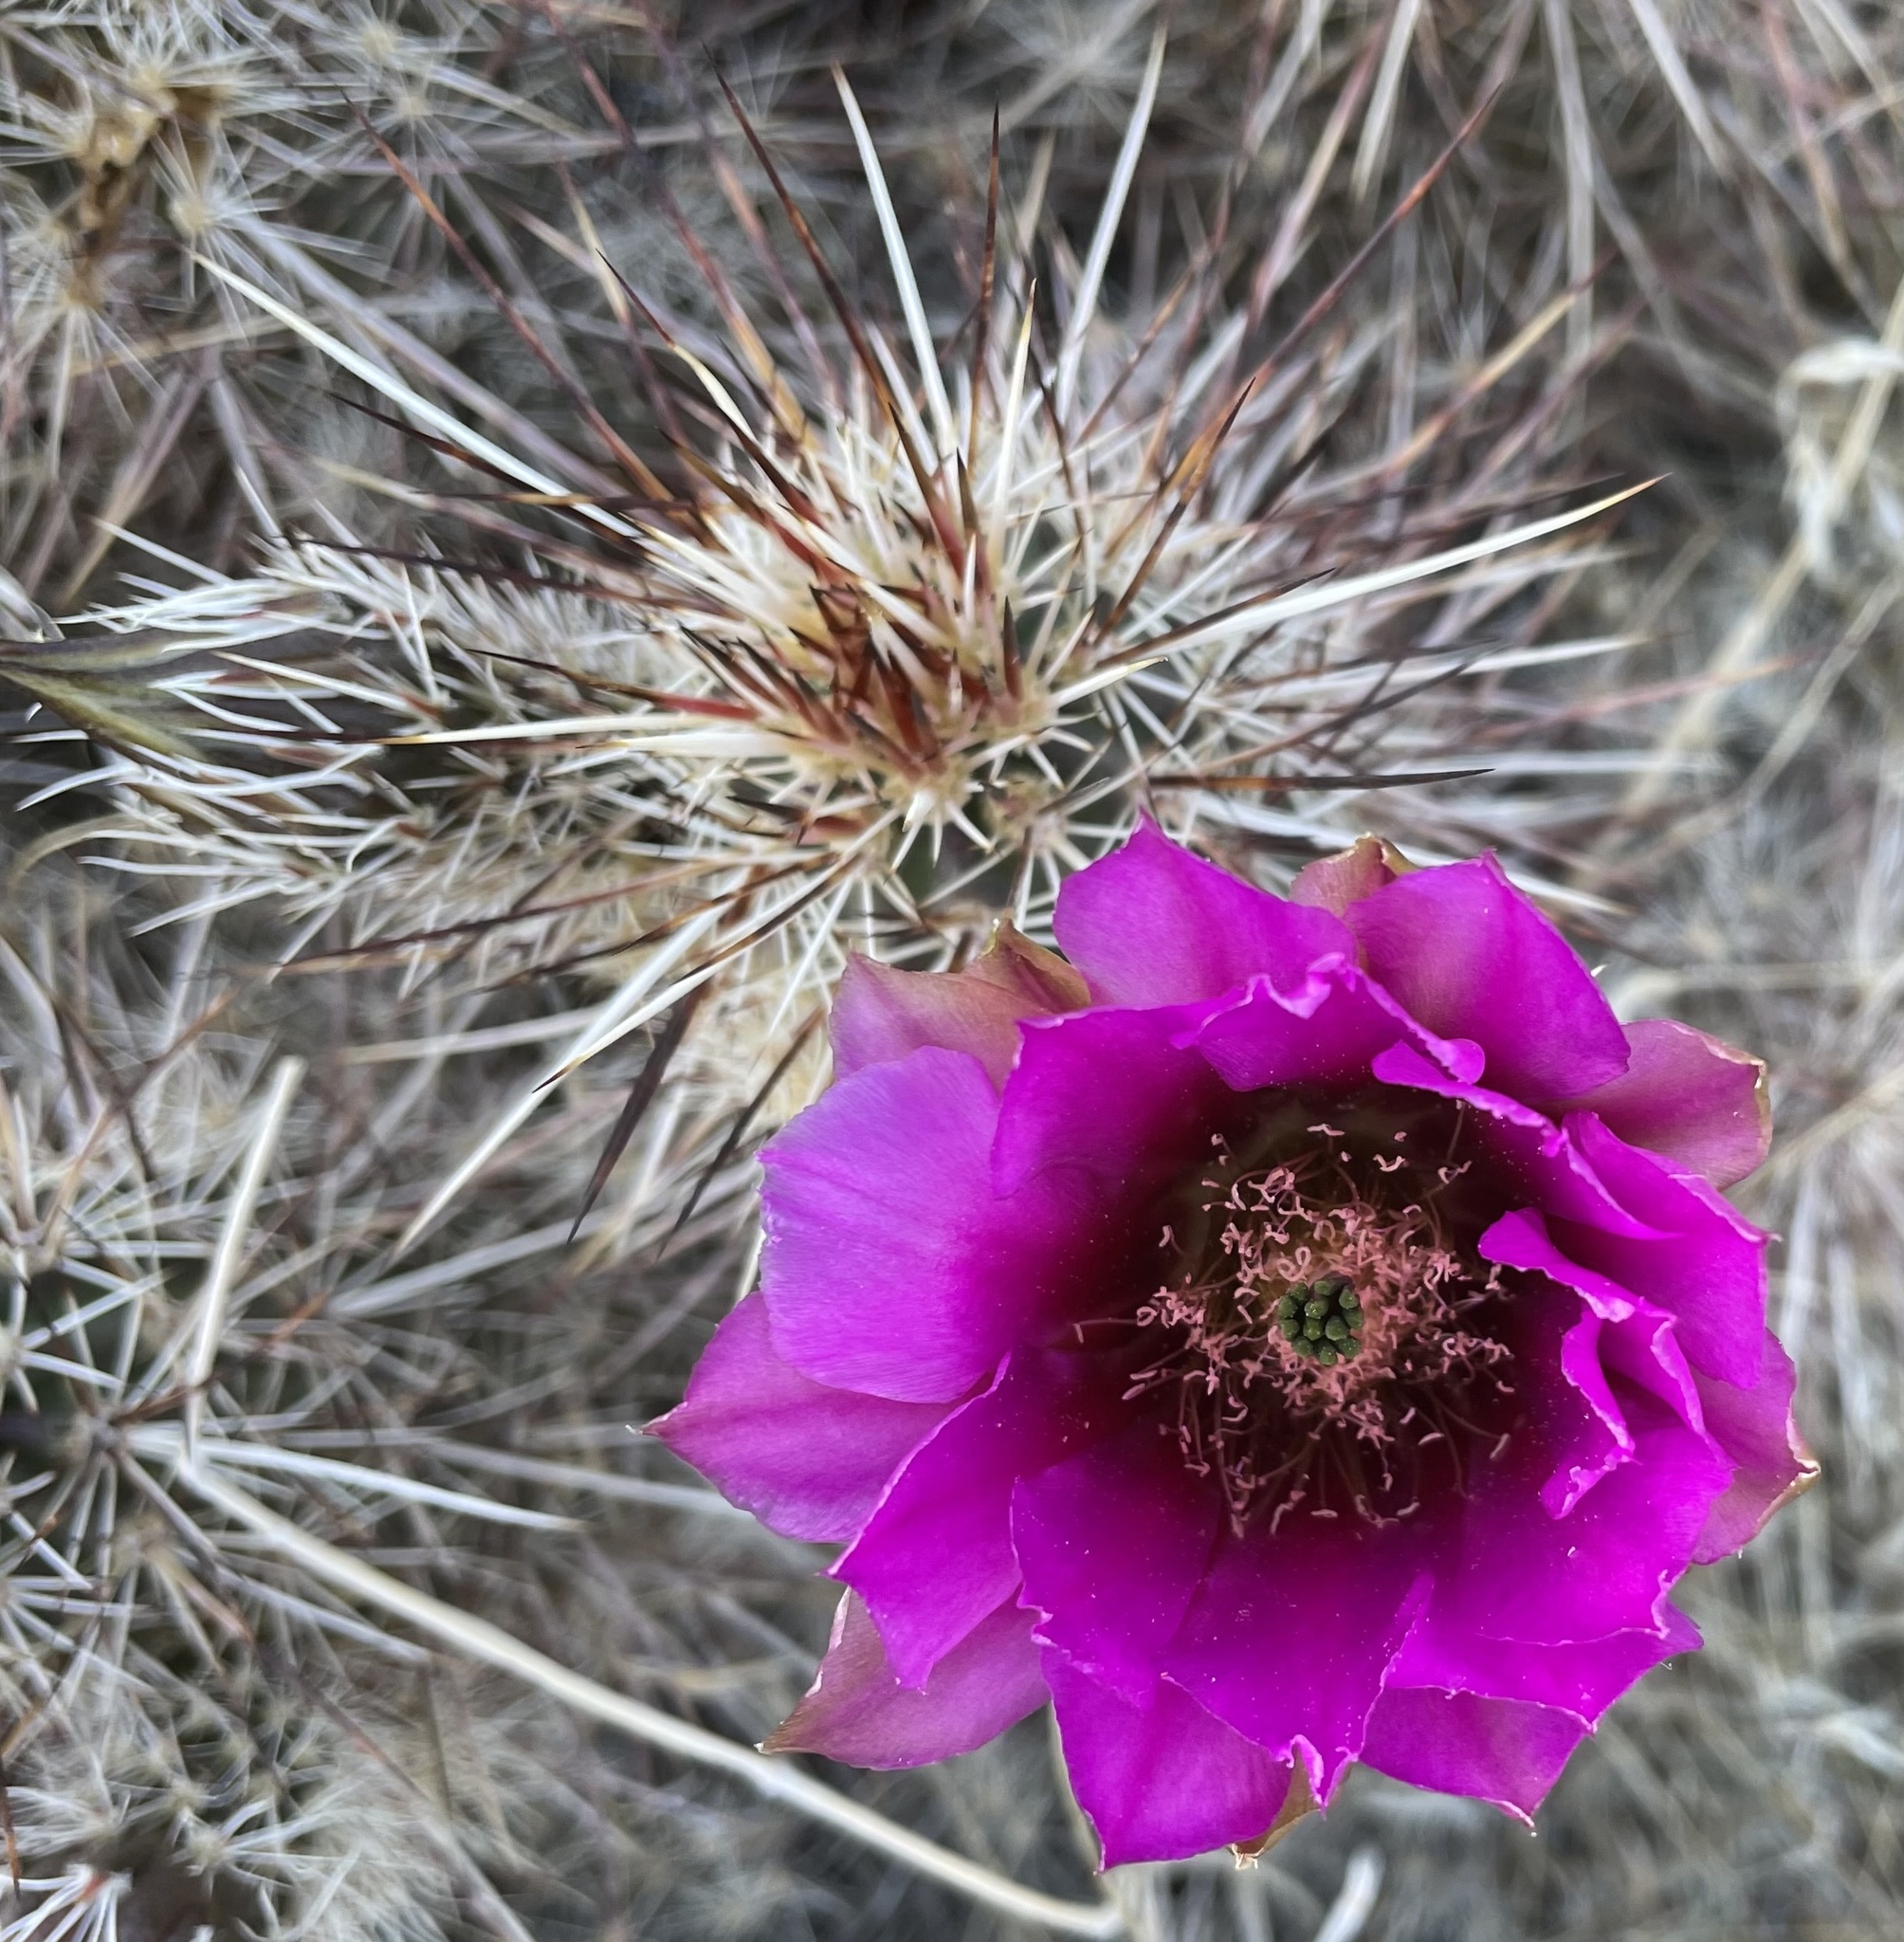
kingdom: Plantae
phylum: Tracheophyta
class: Magnoliopsida
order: Caryophyllales
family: Cactaceae
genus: Echinocereus
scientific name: Echinocereus engelmannii
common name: Engelmann's hedgehog cactus
